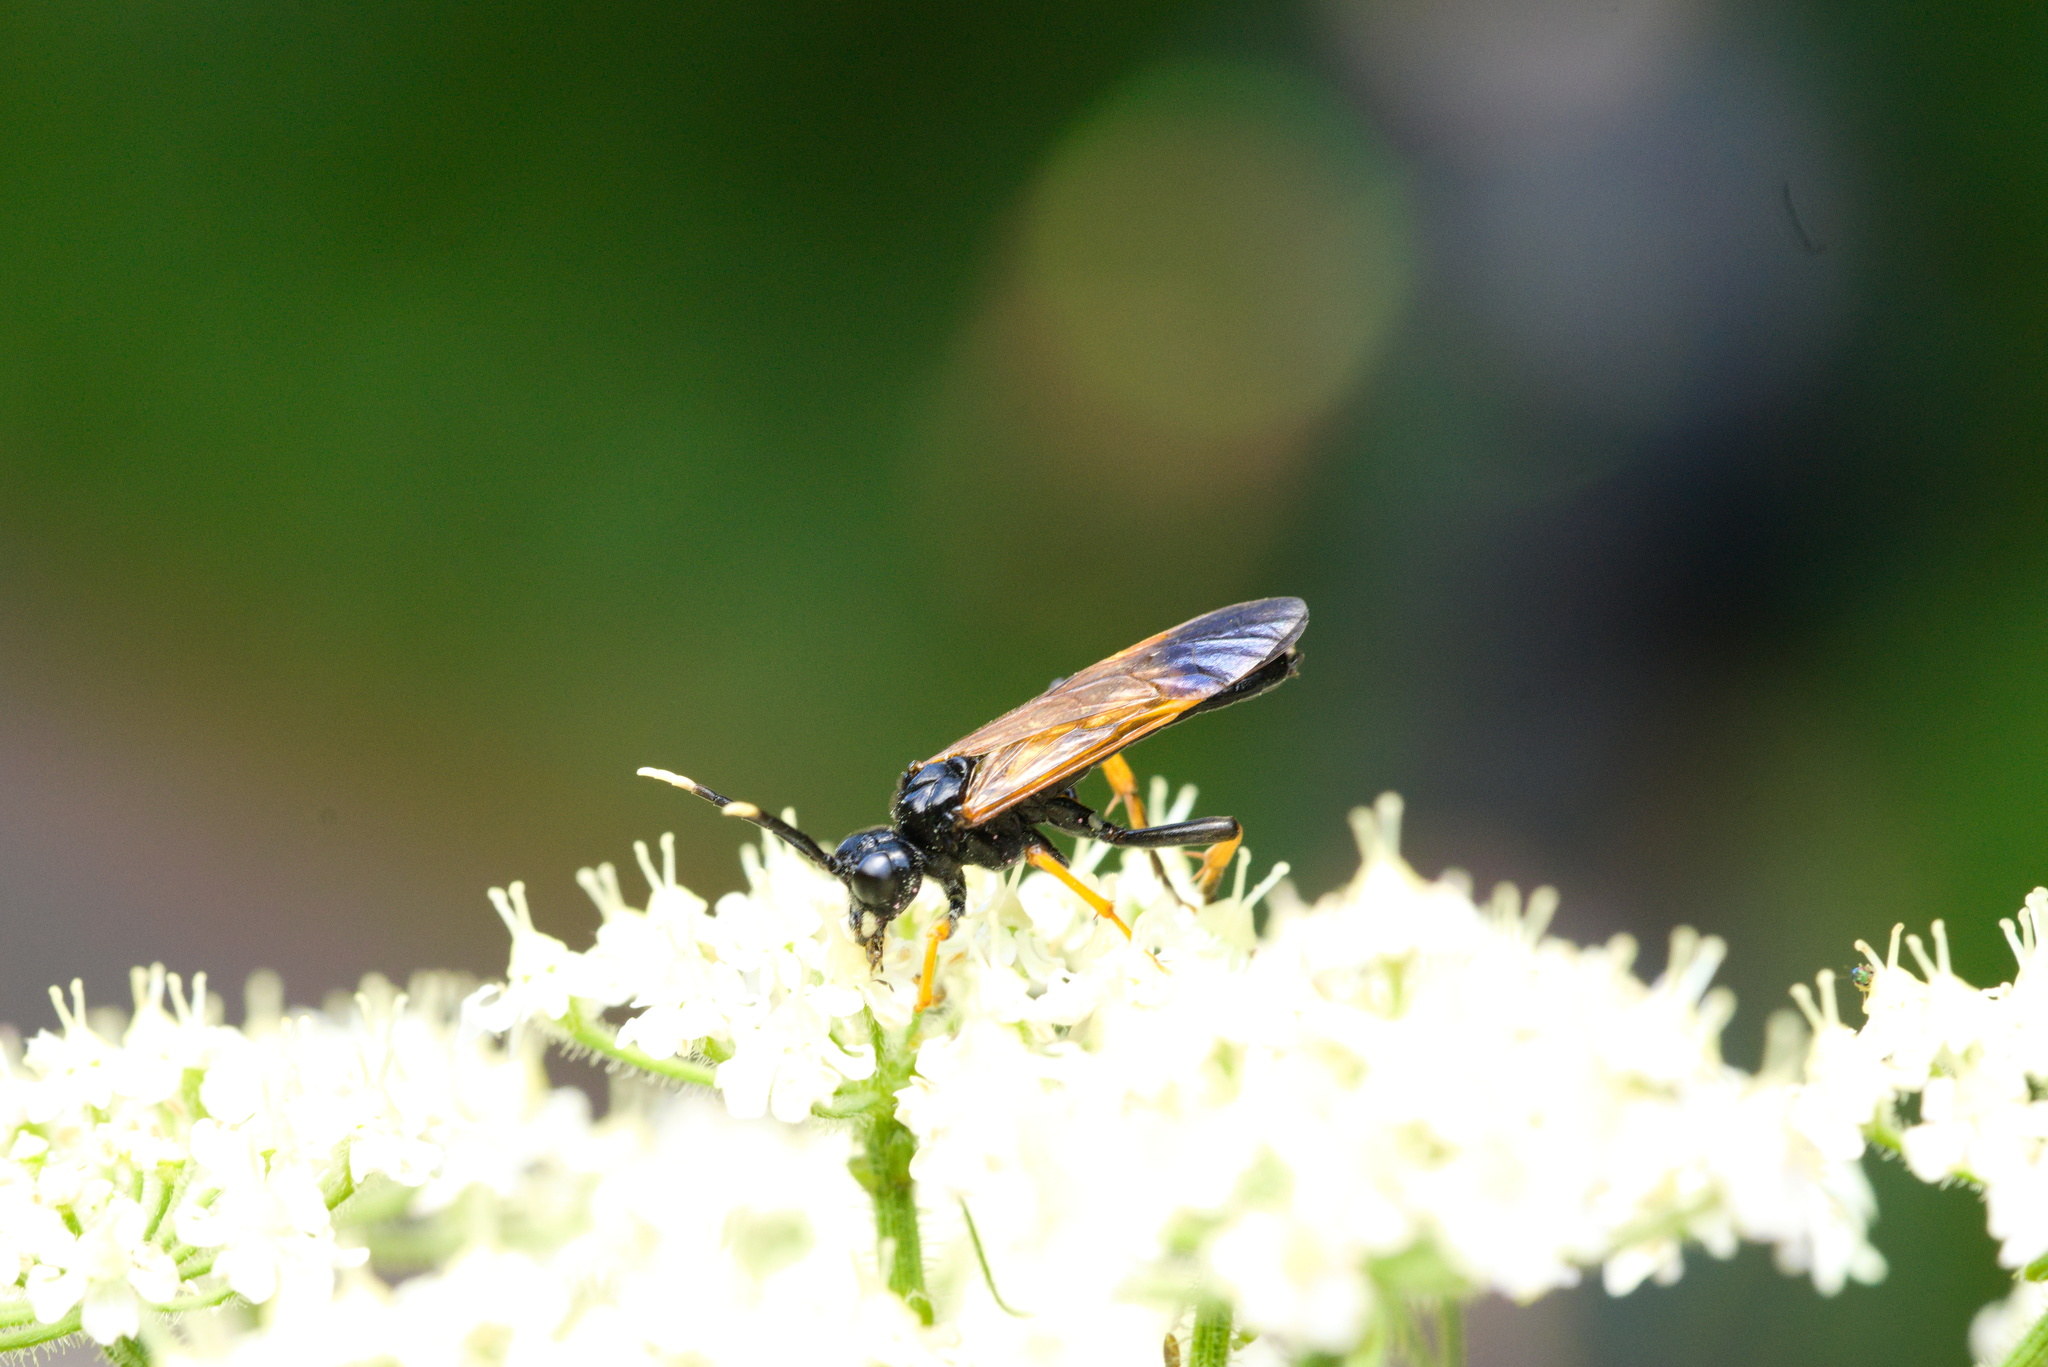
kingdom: Animalia
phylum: Arthropoda
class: Insecta
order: Hymenoptera
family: Tenthredinidae
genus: Tenthredo
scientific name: Tenthredo crassa
